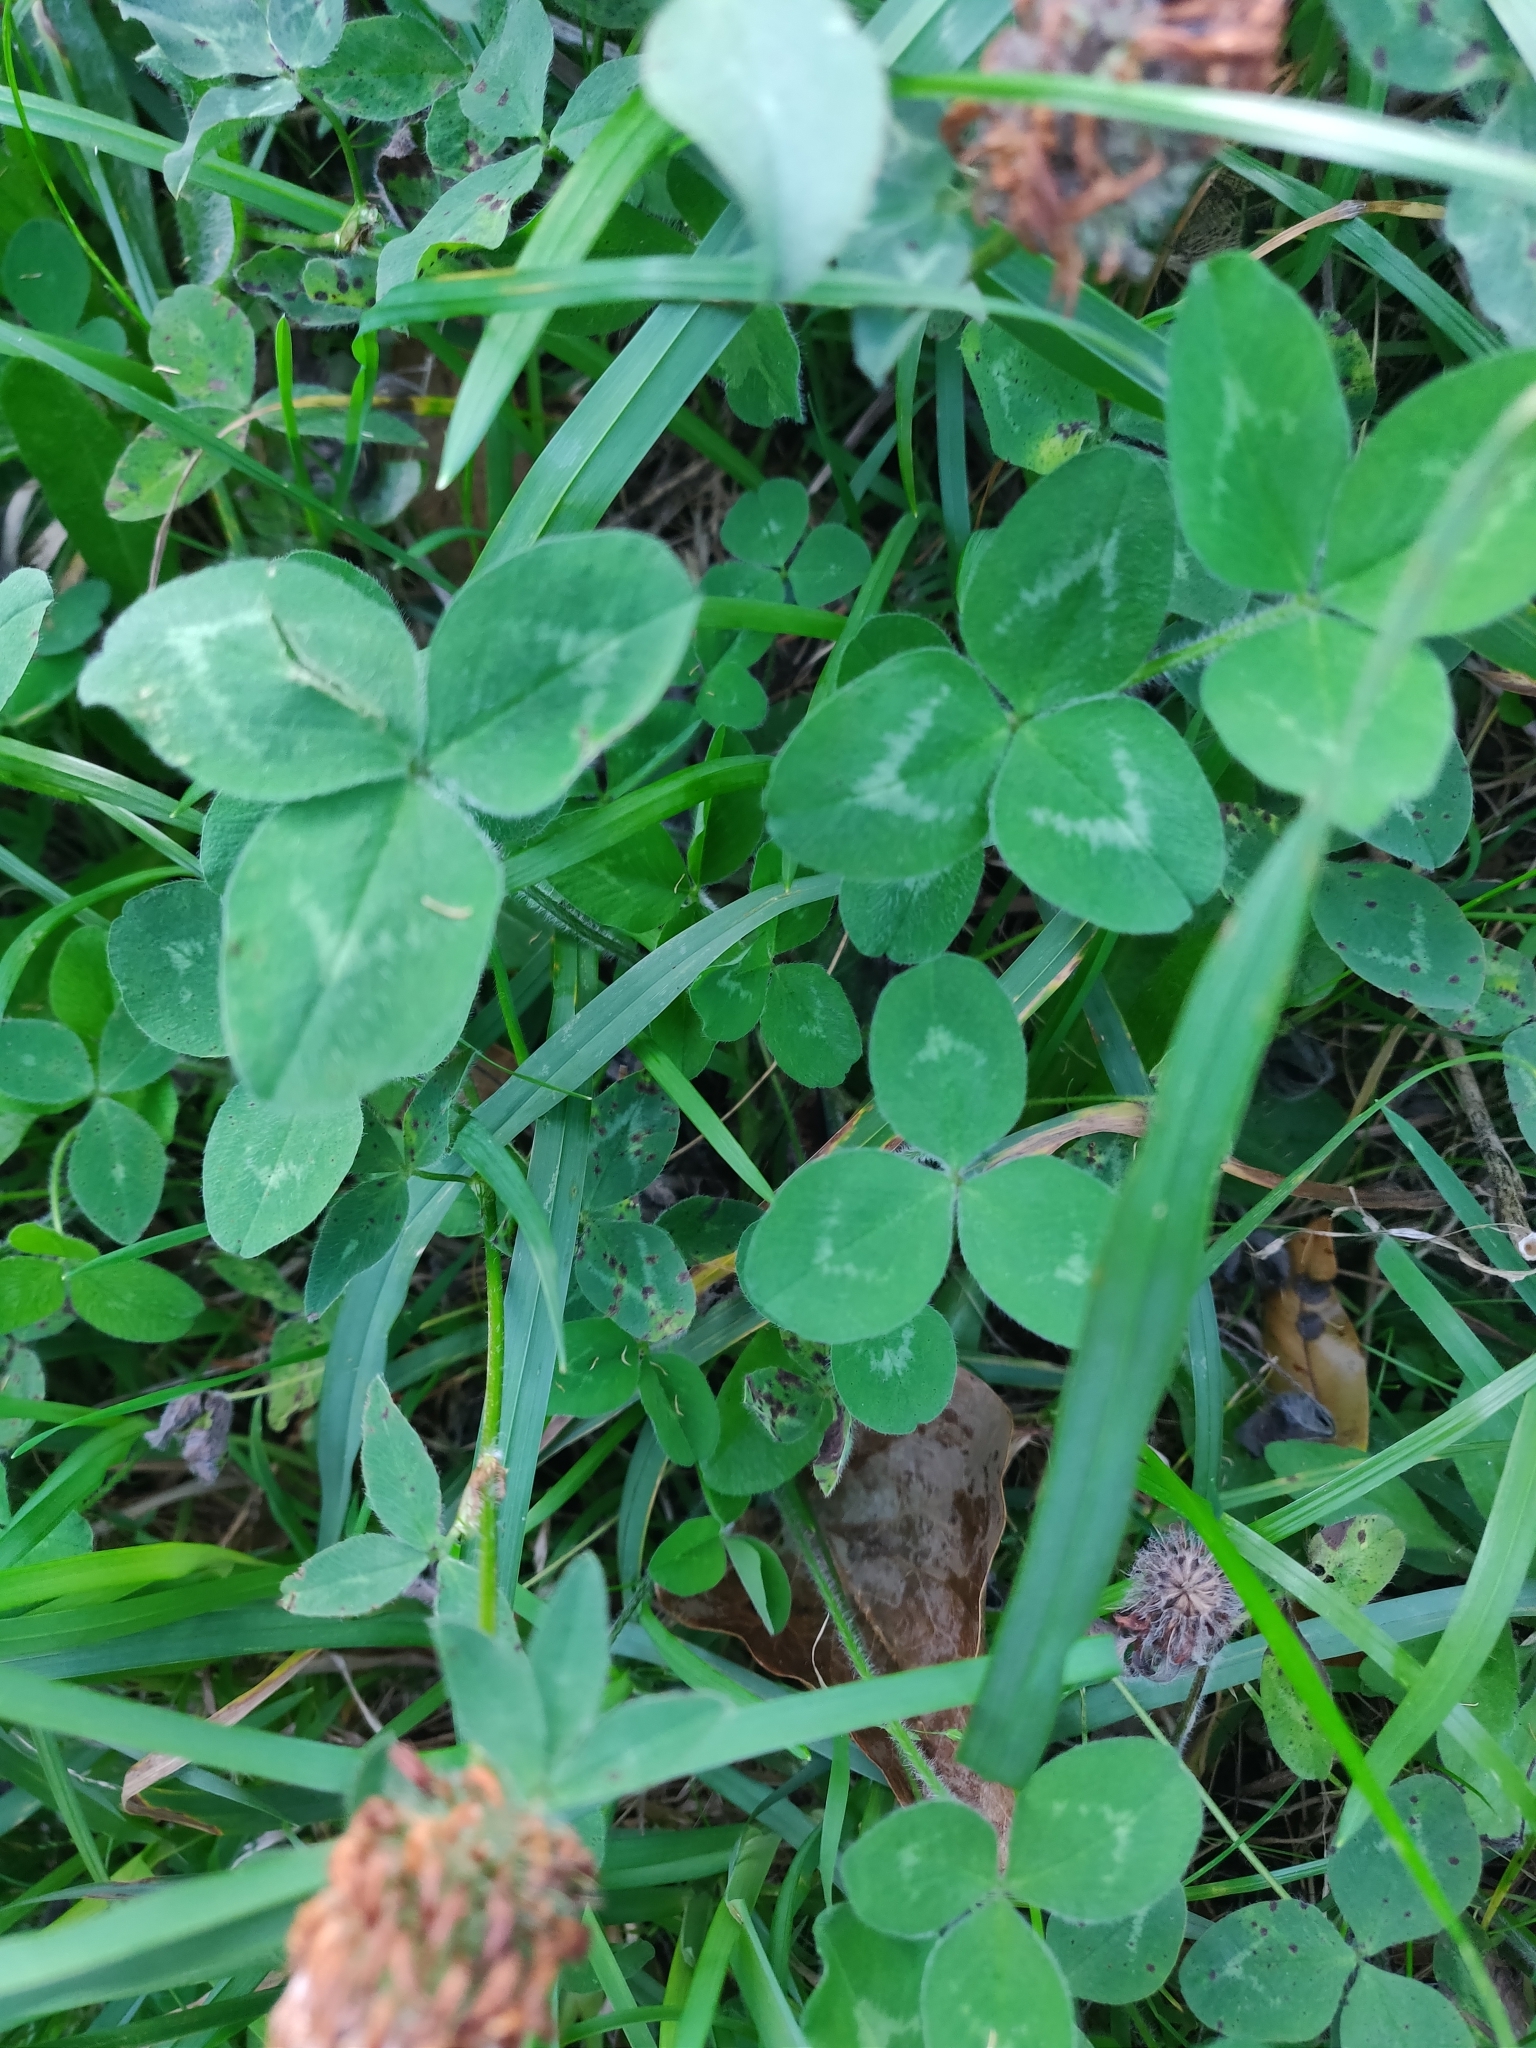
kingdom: Plantae
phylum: Tracheophyta
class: Magnoliopsida
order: Fabales
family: Fabaceae
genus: Trifolium
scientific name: Trifolium pratense
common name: Red clover
